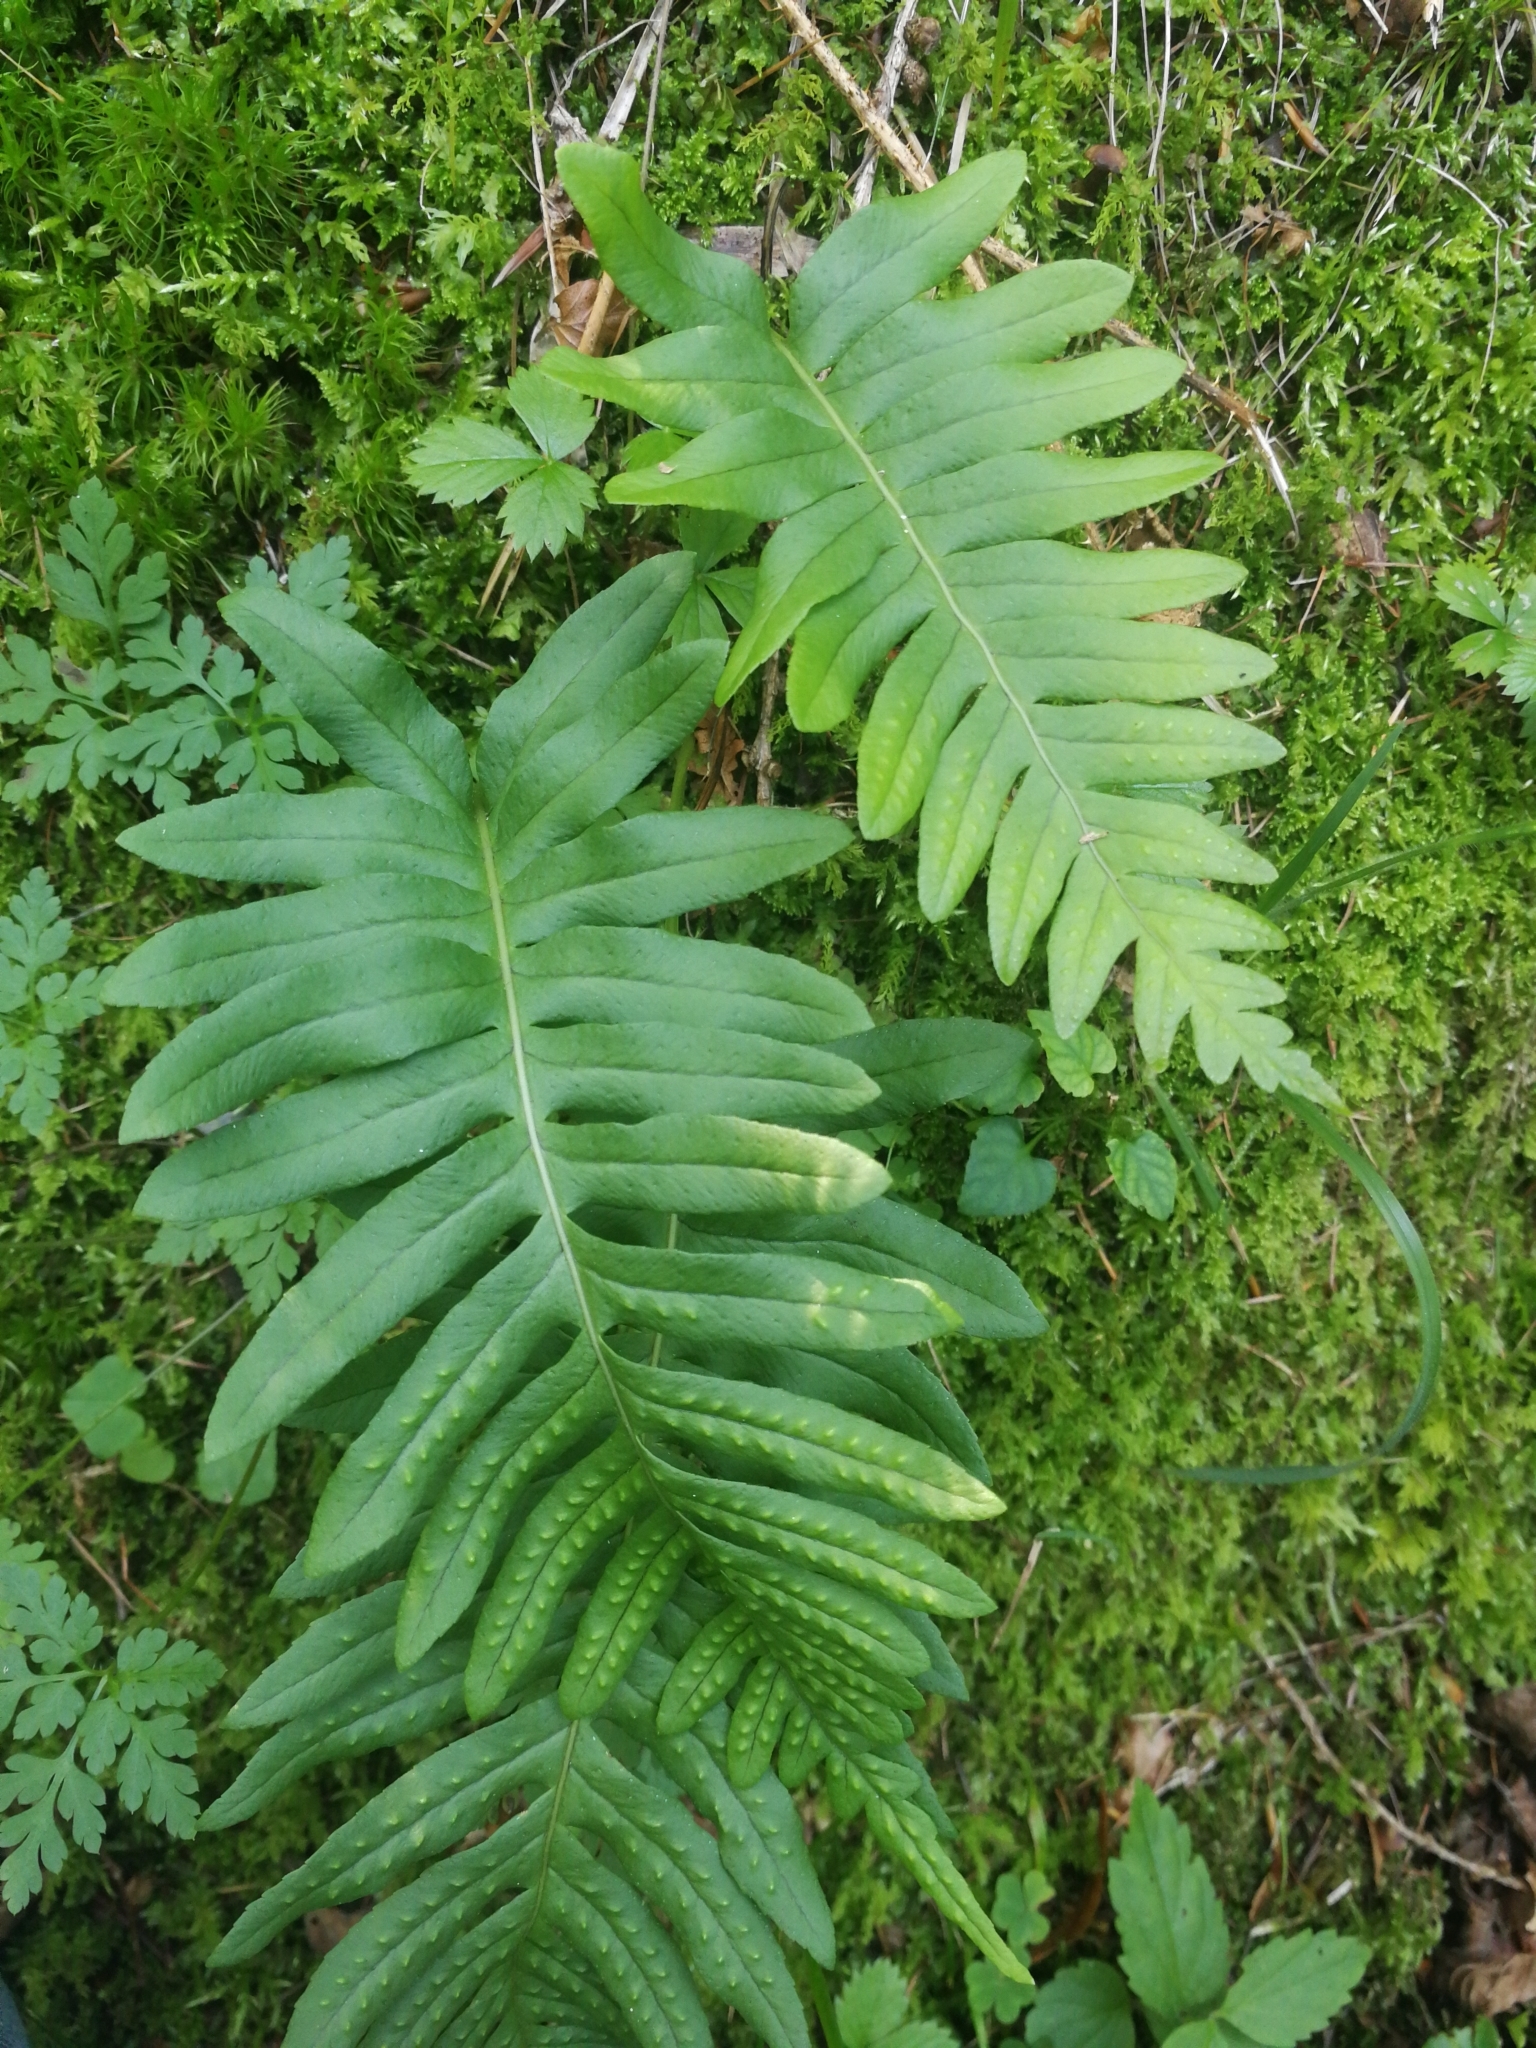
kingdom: Plantae
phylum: Tracheophyta
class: Polypodiopsida
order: Polypodiales
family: Polypodiaceae
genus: Polypodium
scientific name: Polypodium vulgare
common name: Common polypody
